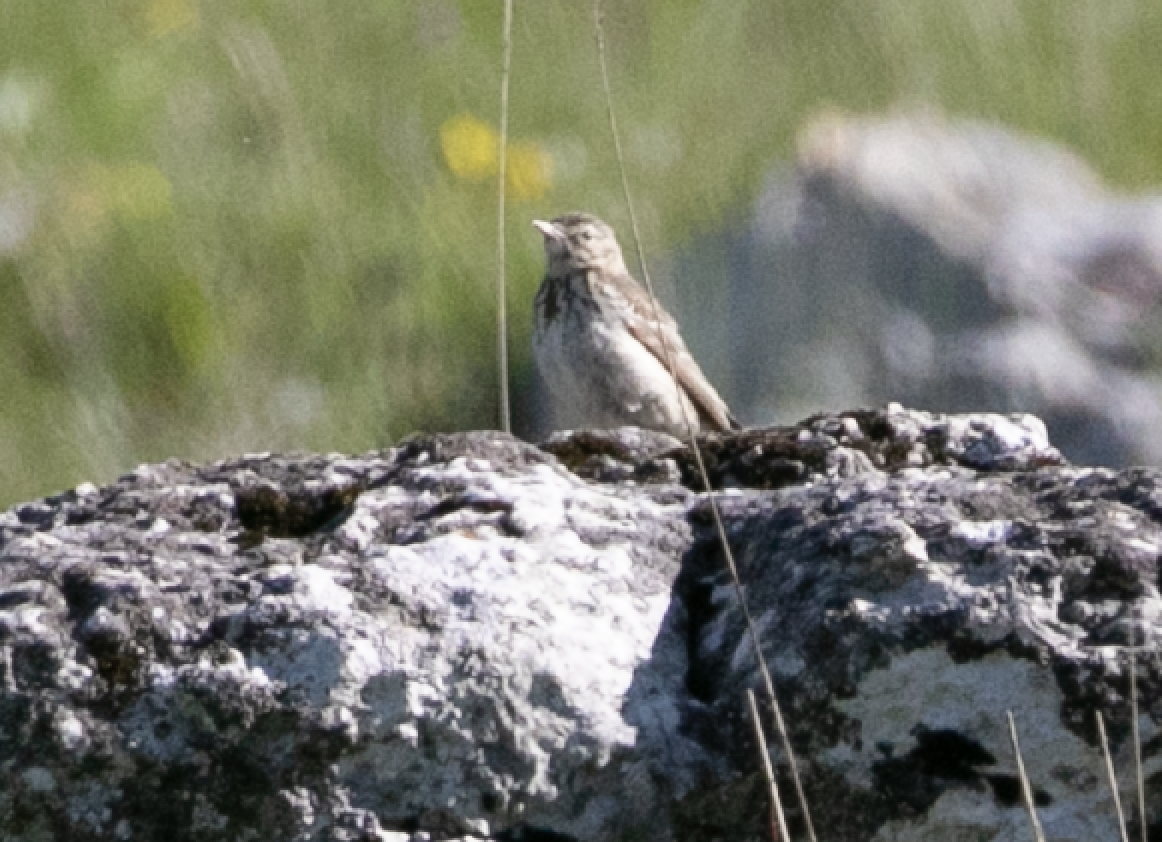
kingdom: Animalia
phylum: Chordata
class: Aves
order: Passeriformes
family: Motacillidae
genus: Anthus
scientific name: Anthus trivialis
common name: Tree pipit
